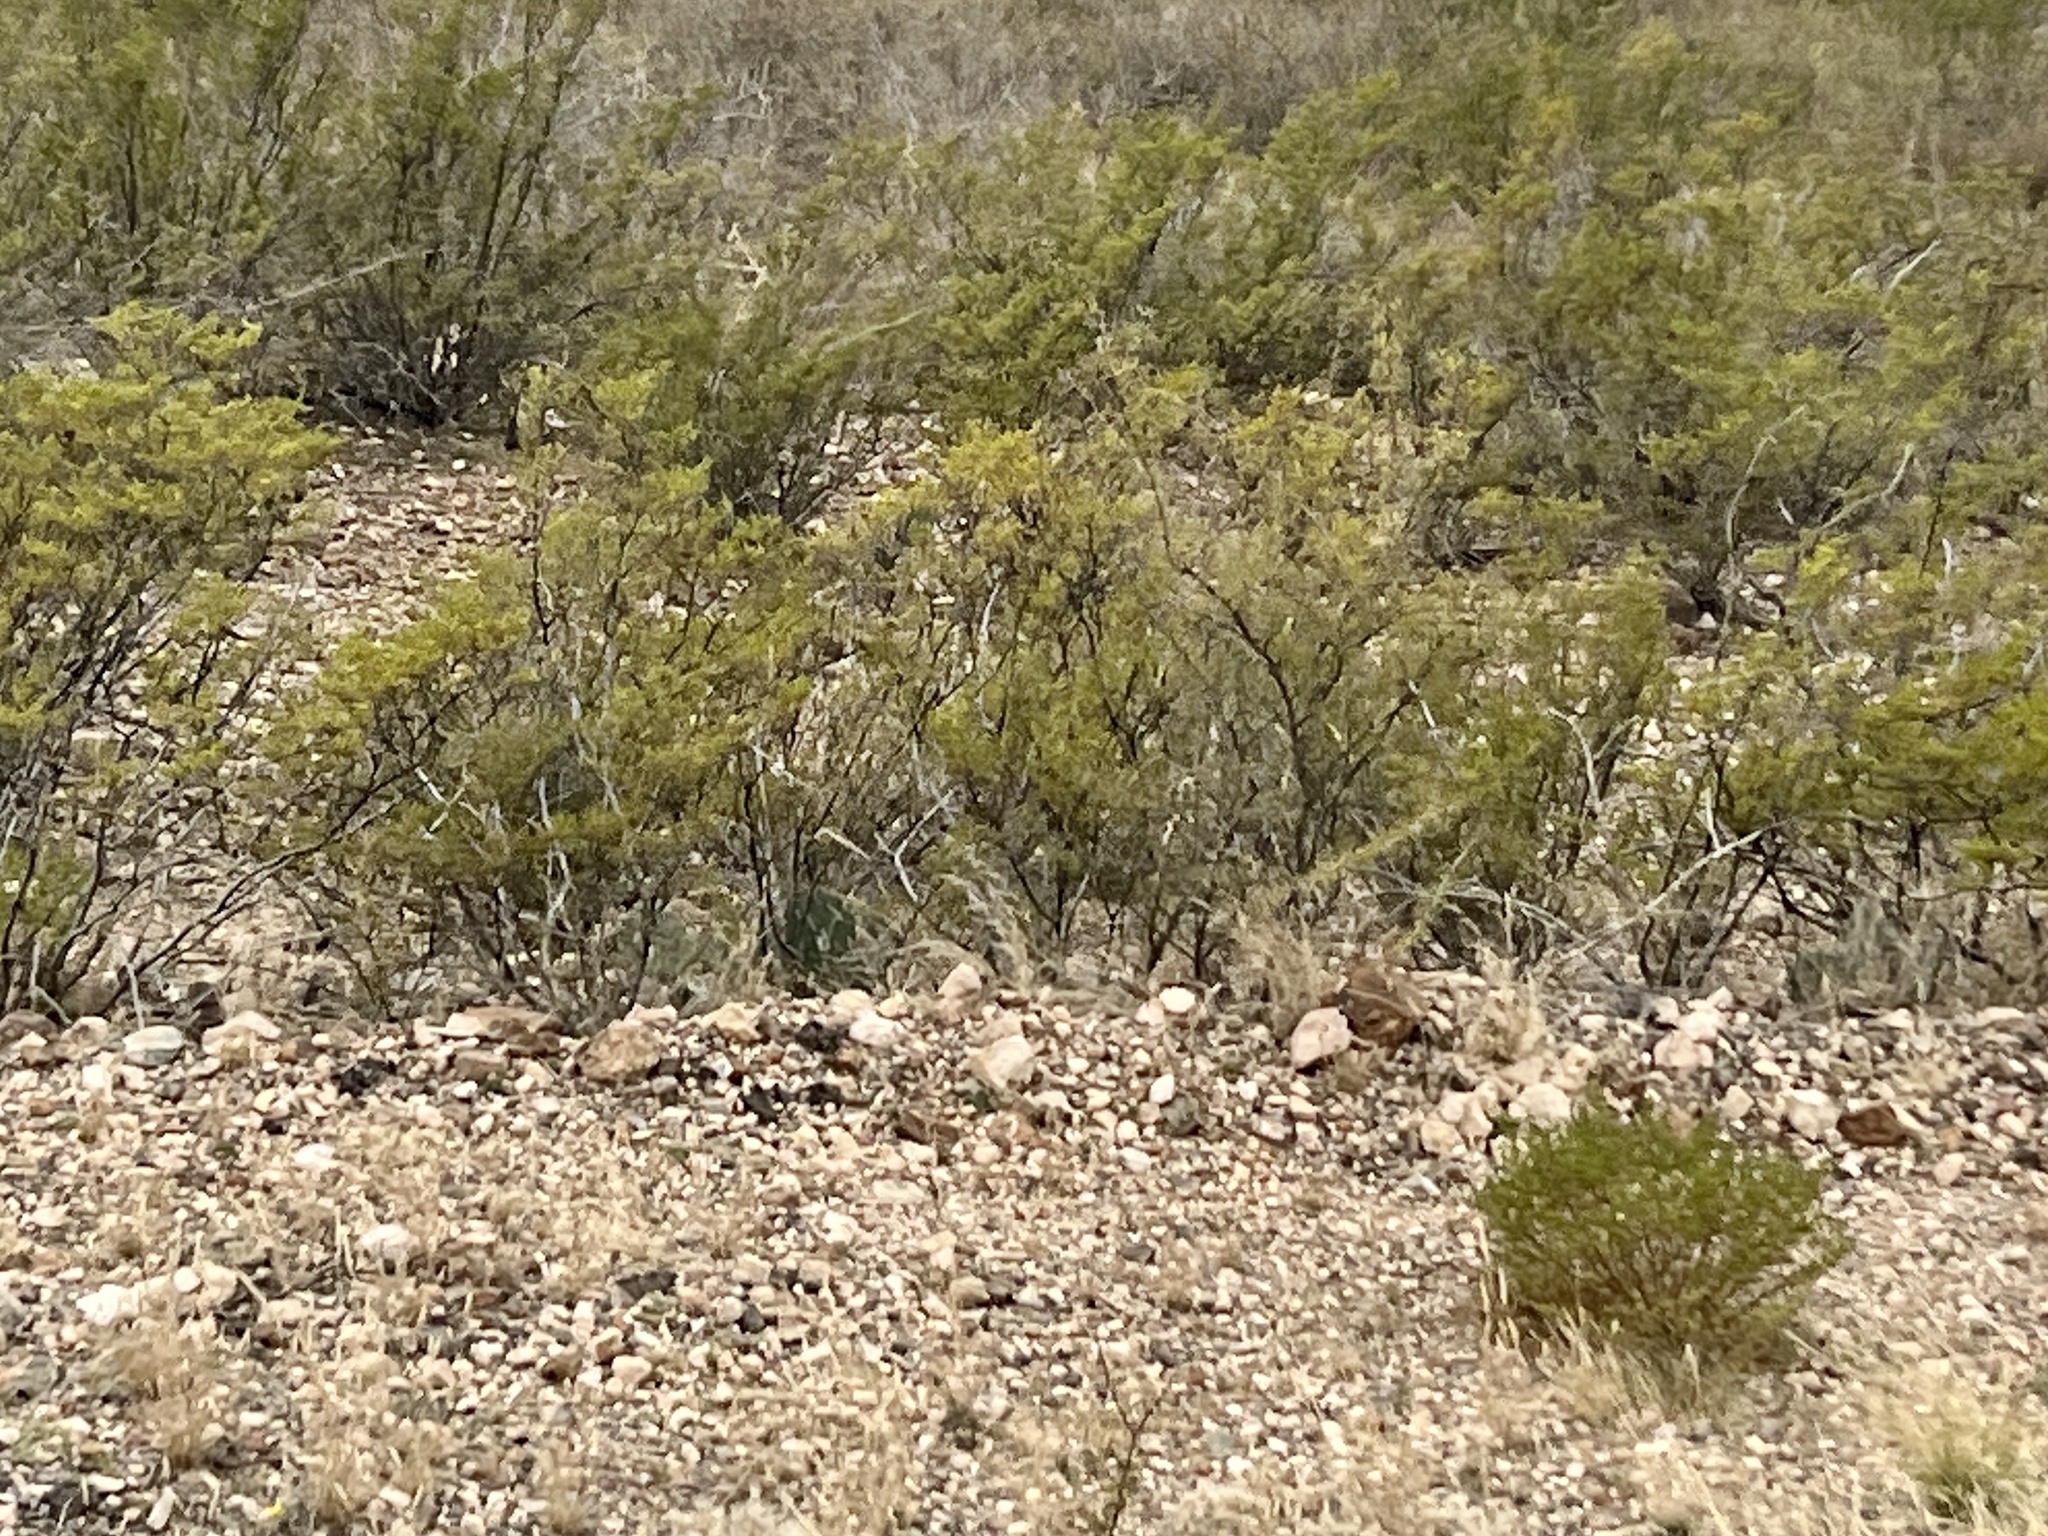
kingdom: Plantae
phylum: Tracheophyta
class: Magnoliopsida
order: Zygophyllales
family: Zygophyllaceae
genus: Larrea
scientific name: Larrea tridentata
